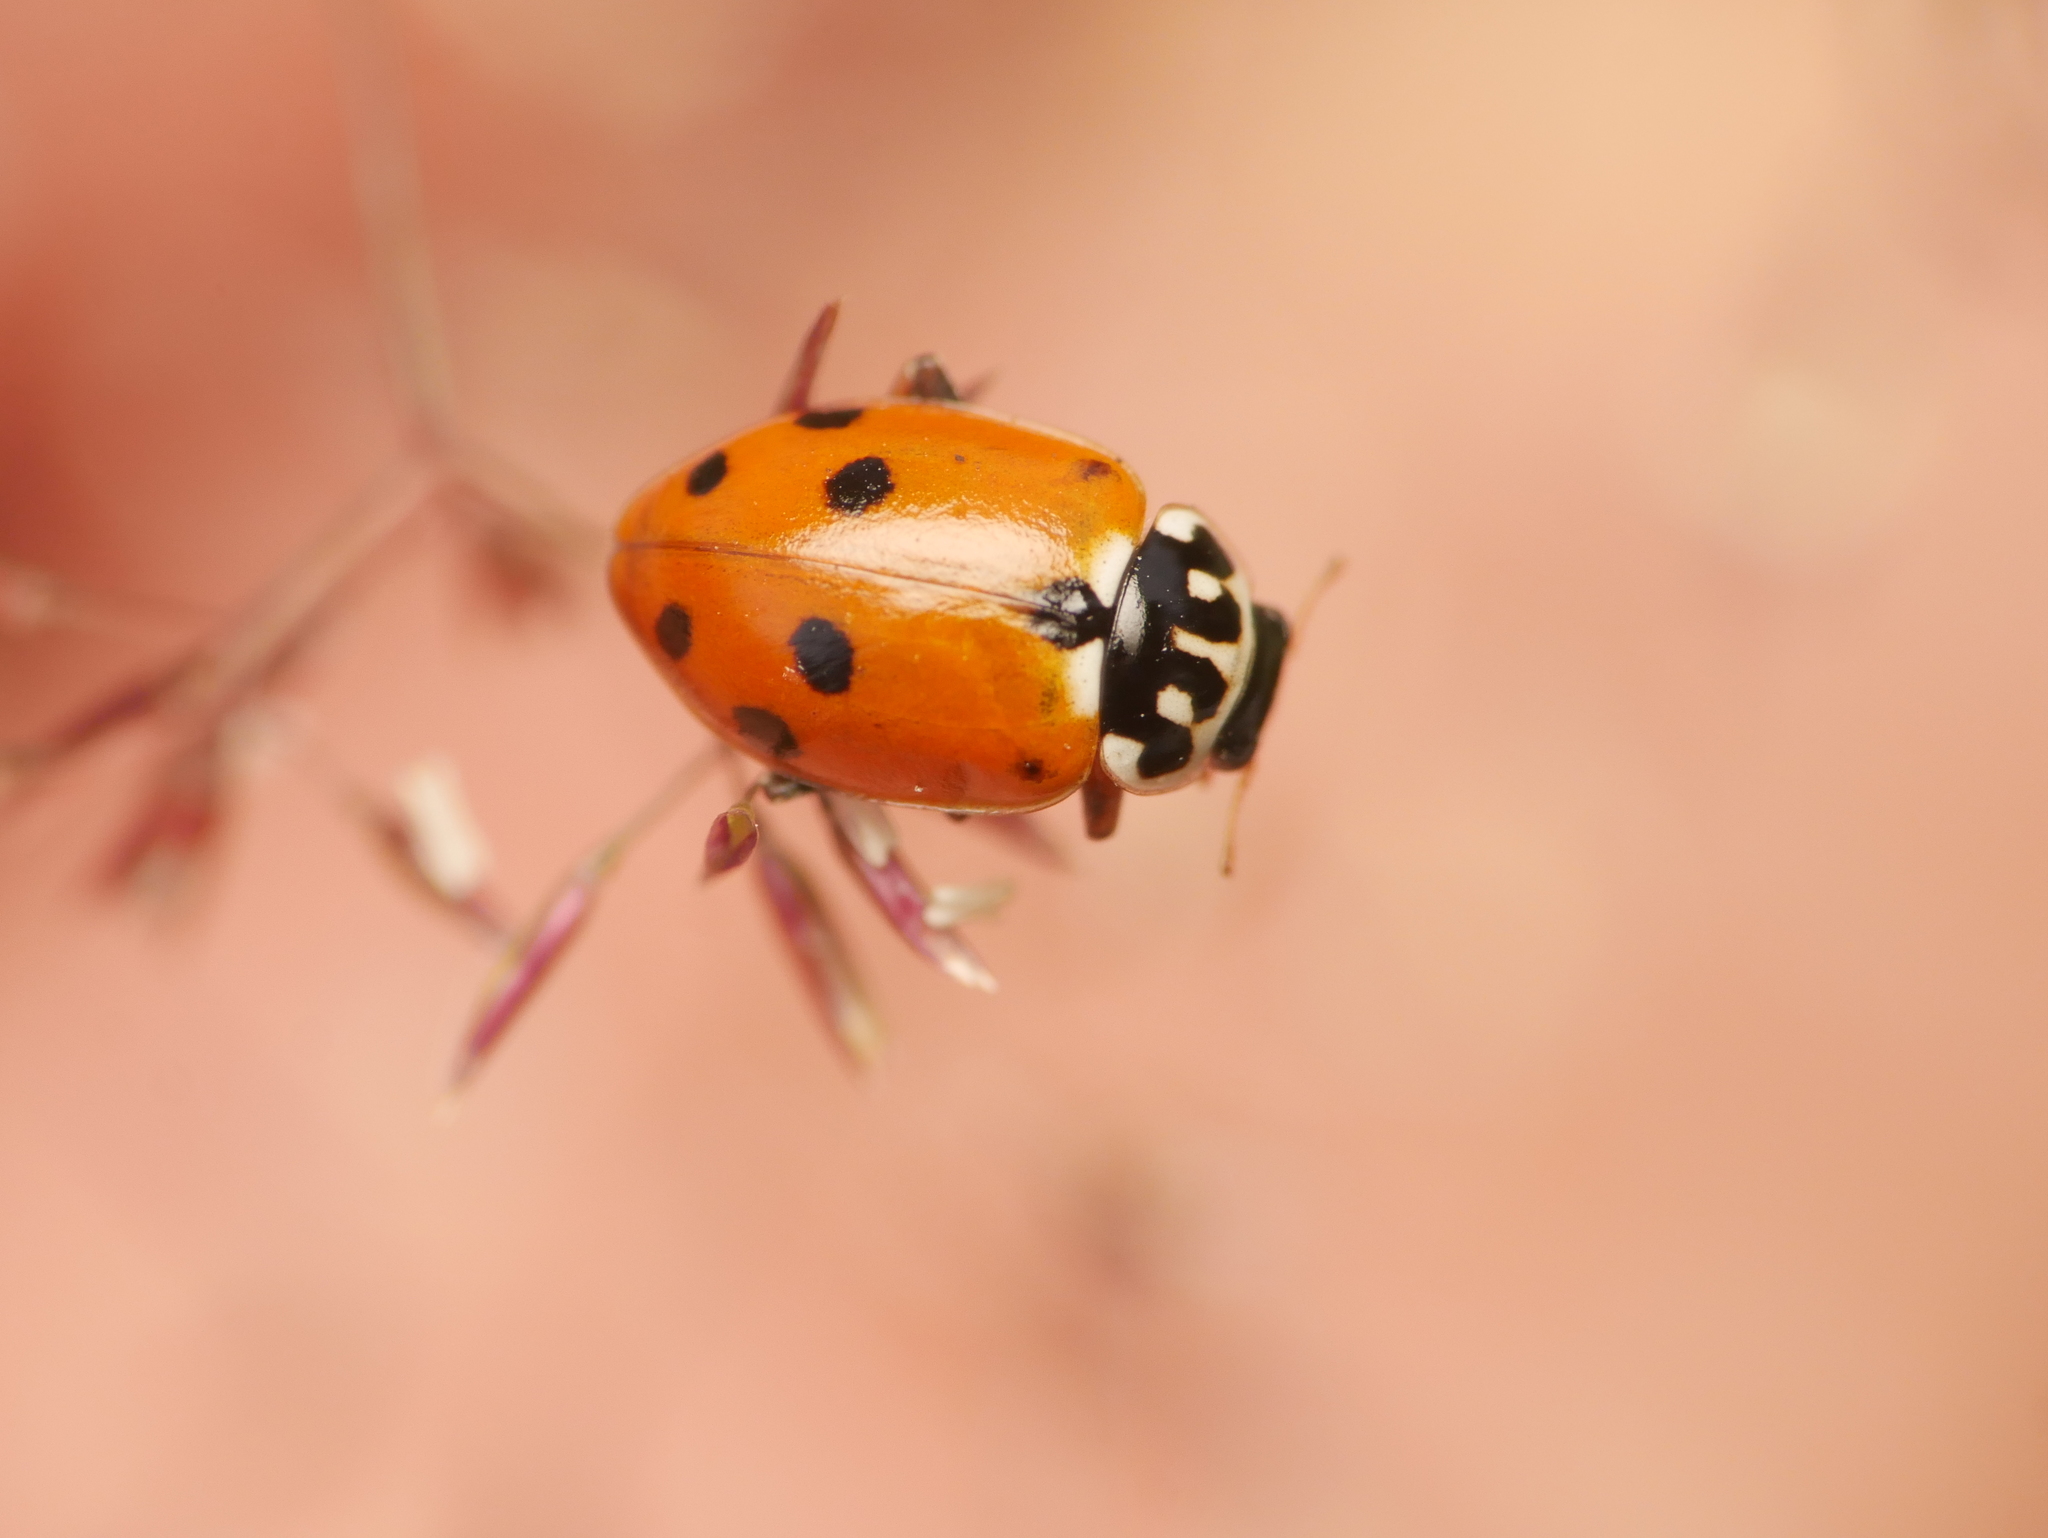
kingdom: Animalia
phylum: Arthropoda
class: Insecta
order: Coleoptera
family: Coccinellidae
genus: Hippodamia
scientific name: Hippodamia variegata
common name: Ladybird beetle
